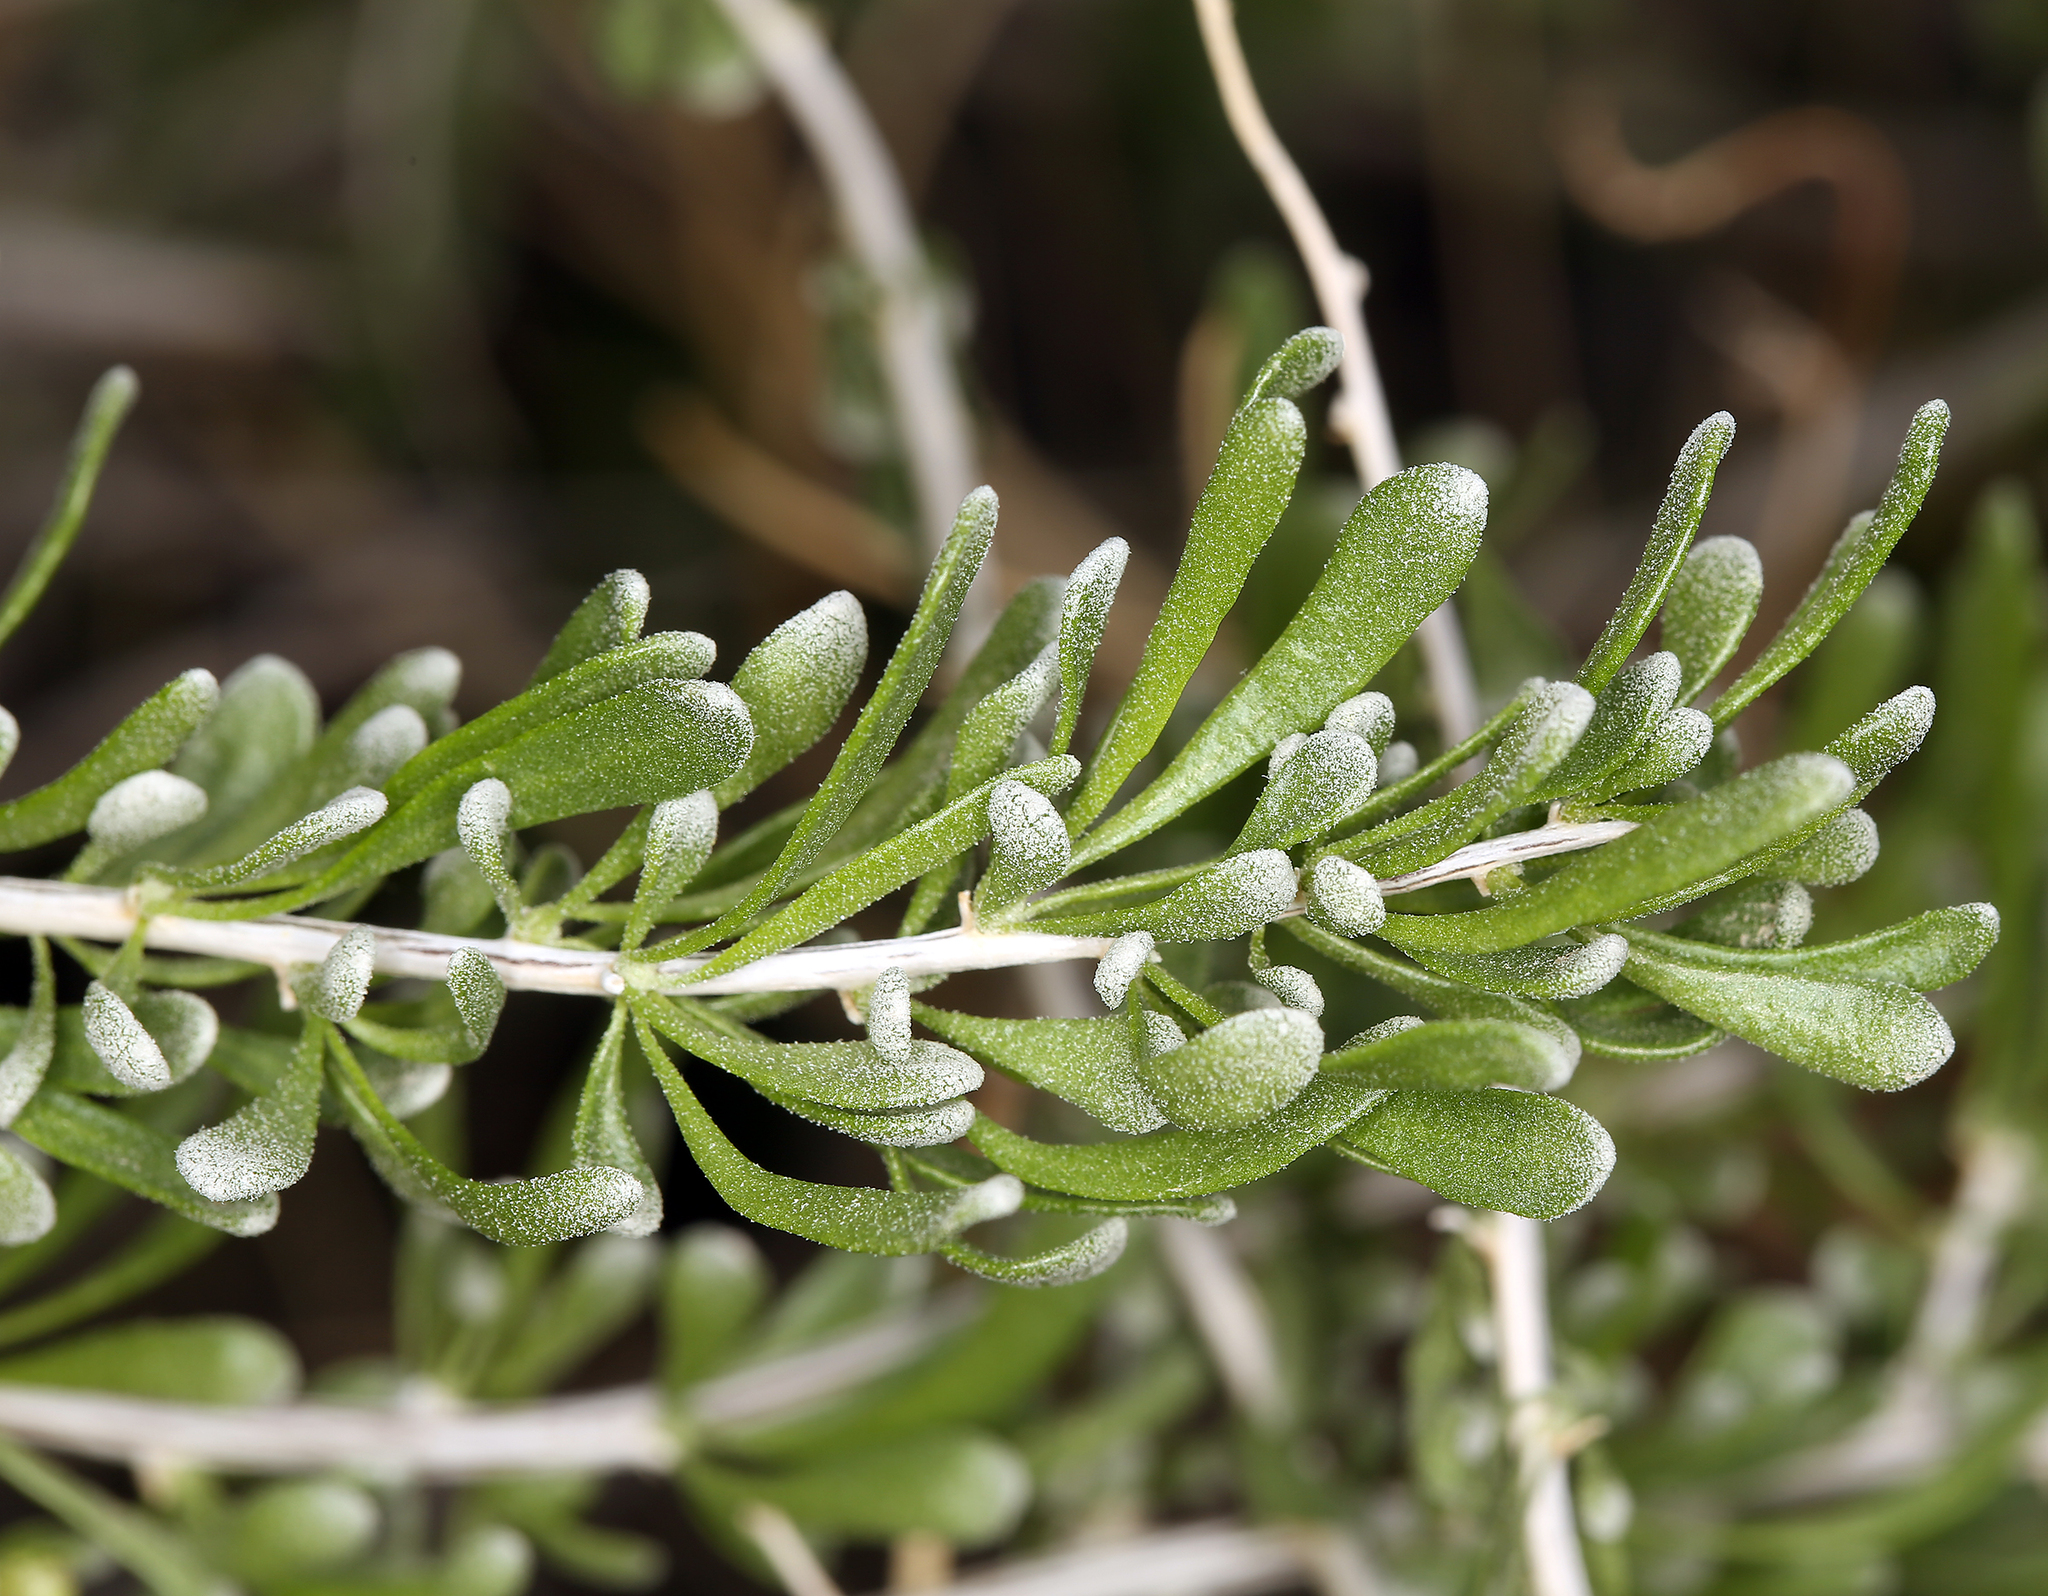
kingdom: Plantae
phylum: Tracheophyta
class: Magnoliopsida
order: Caryophyllales
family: Amaranthaceae
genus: Grayia
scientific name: Grayia spinosa
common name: Spiny hopsage
